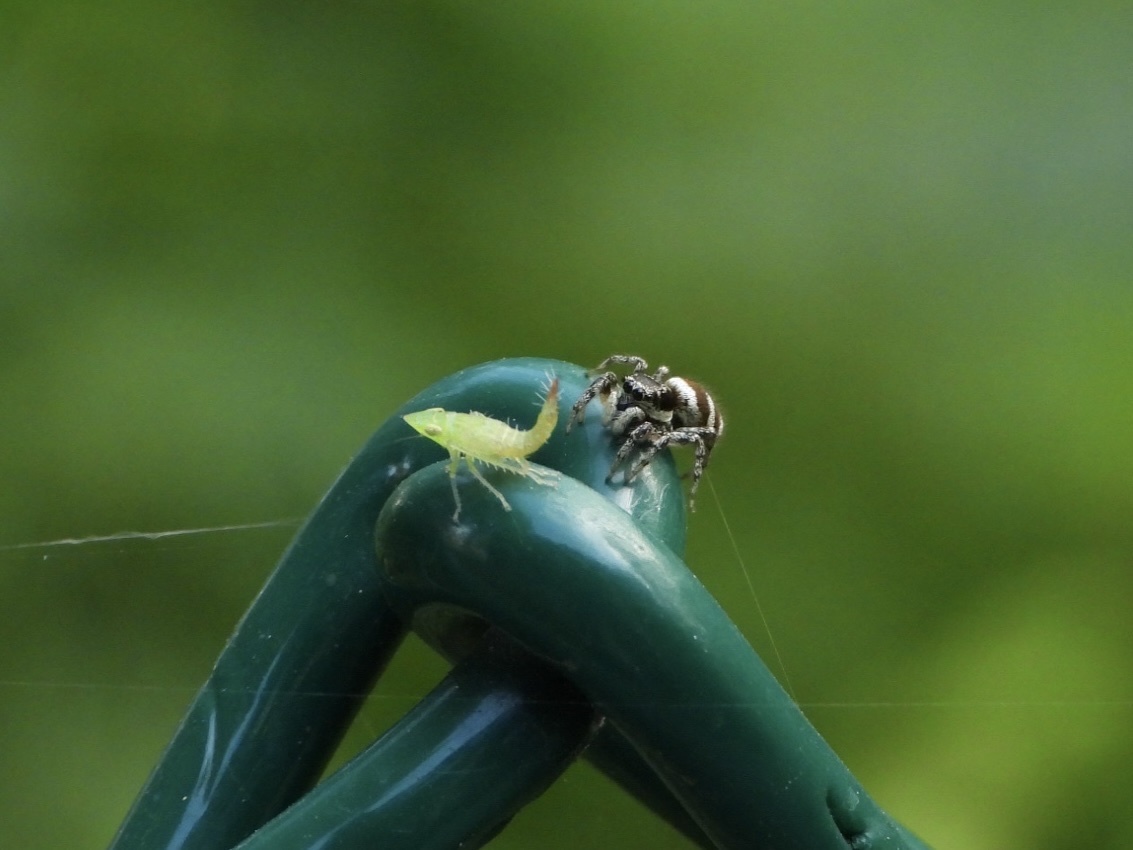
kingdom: Animalia
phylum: Arthropoda
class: Arachnida
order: Araneae
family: Salticidae
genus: Salticus
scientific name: Salticus scenicus
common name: Zebra jumper
